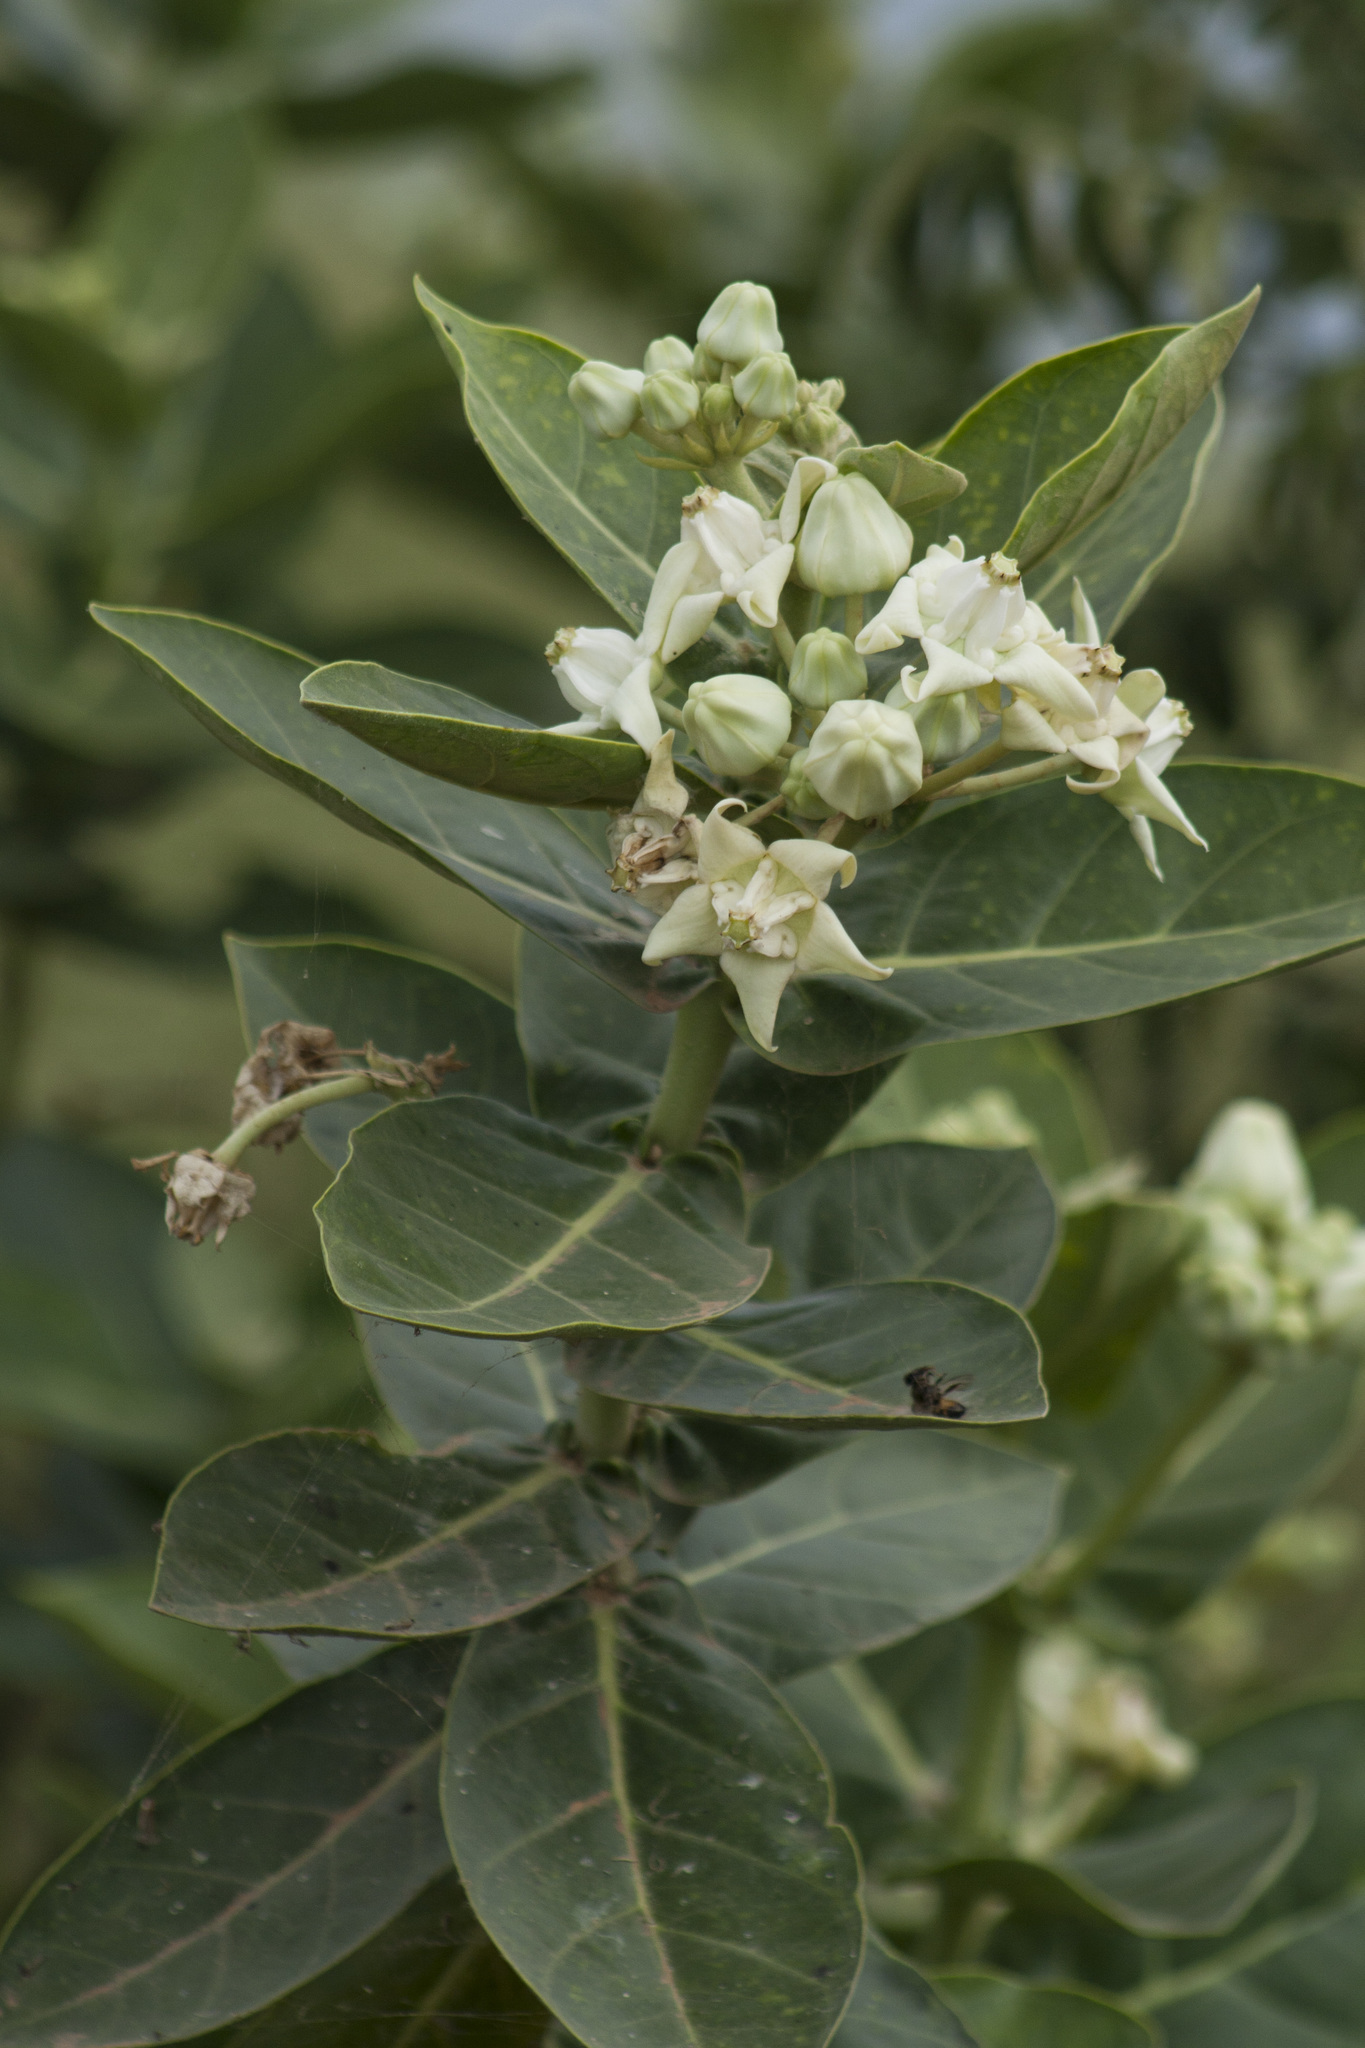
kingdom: Plantae
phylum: Tracheophyta
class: Magnoliopsida
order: Gentianales
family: Apocynaceae
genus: Calotropis
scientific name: Calotropis gigantea
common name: Crown flower
